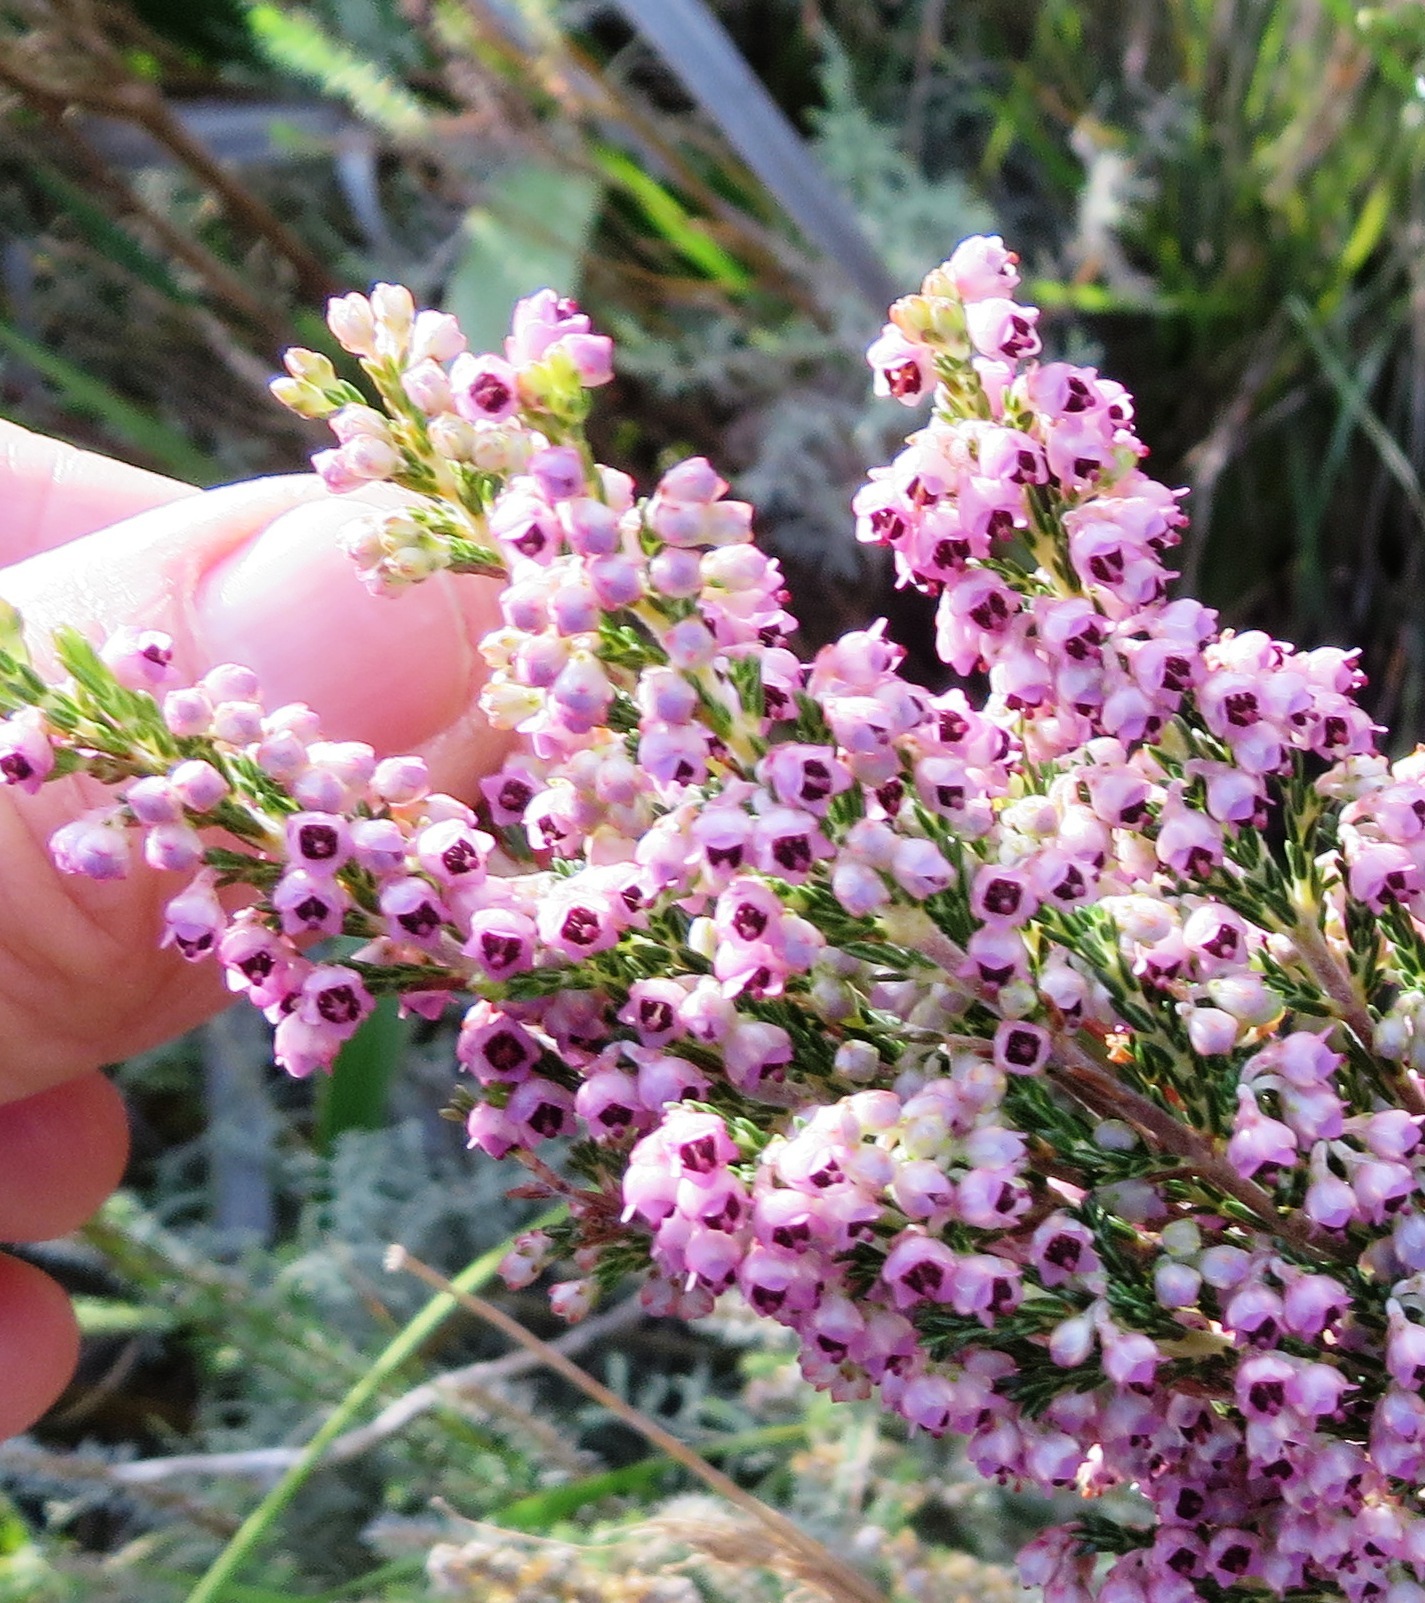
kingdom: Plantae
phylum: Tracheophyta
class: Magnoliopsida
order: Ericales
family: Ericaceae
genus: Erica
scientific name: Erica lucida
